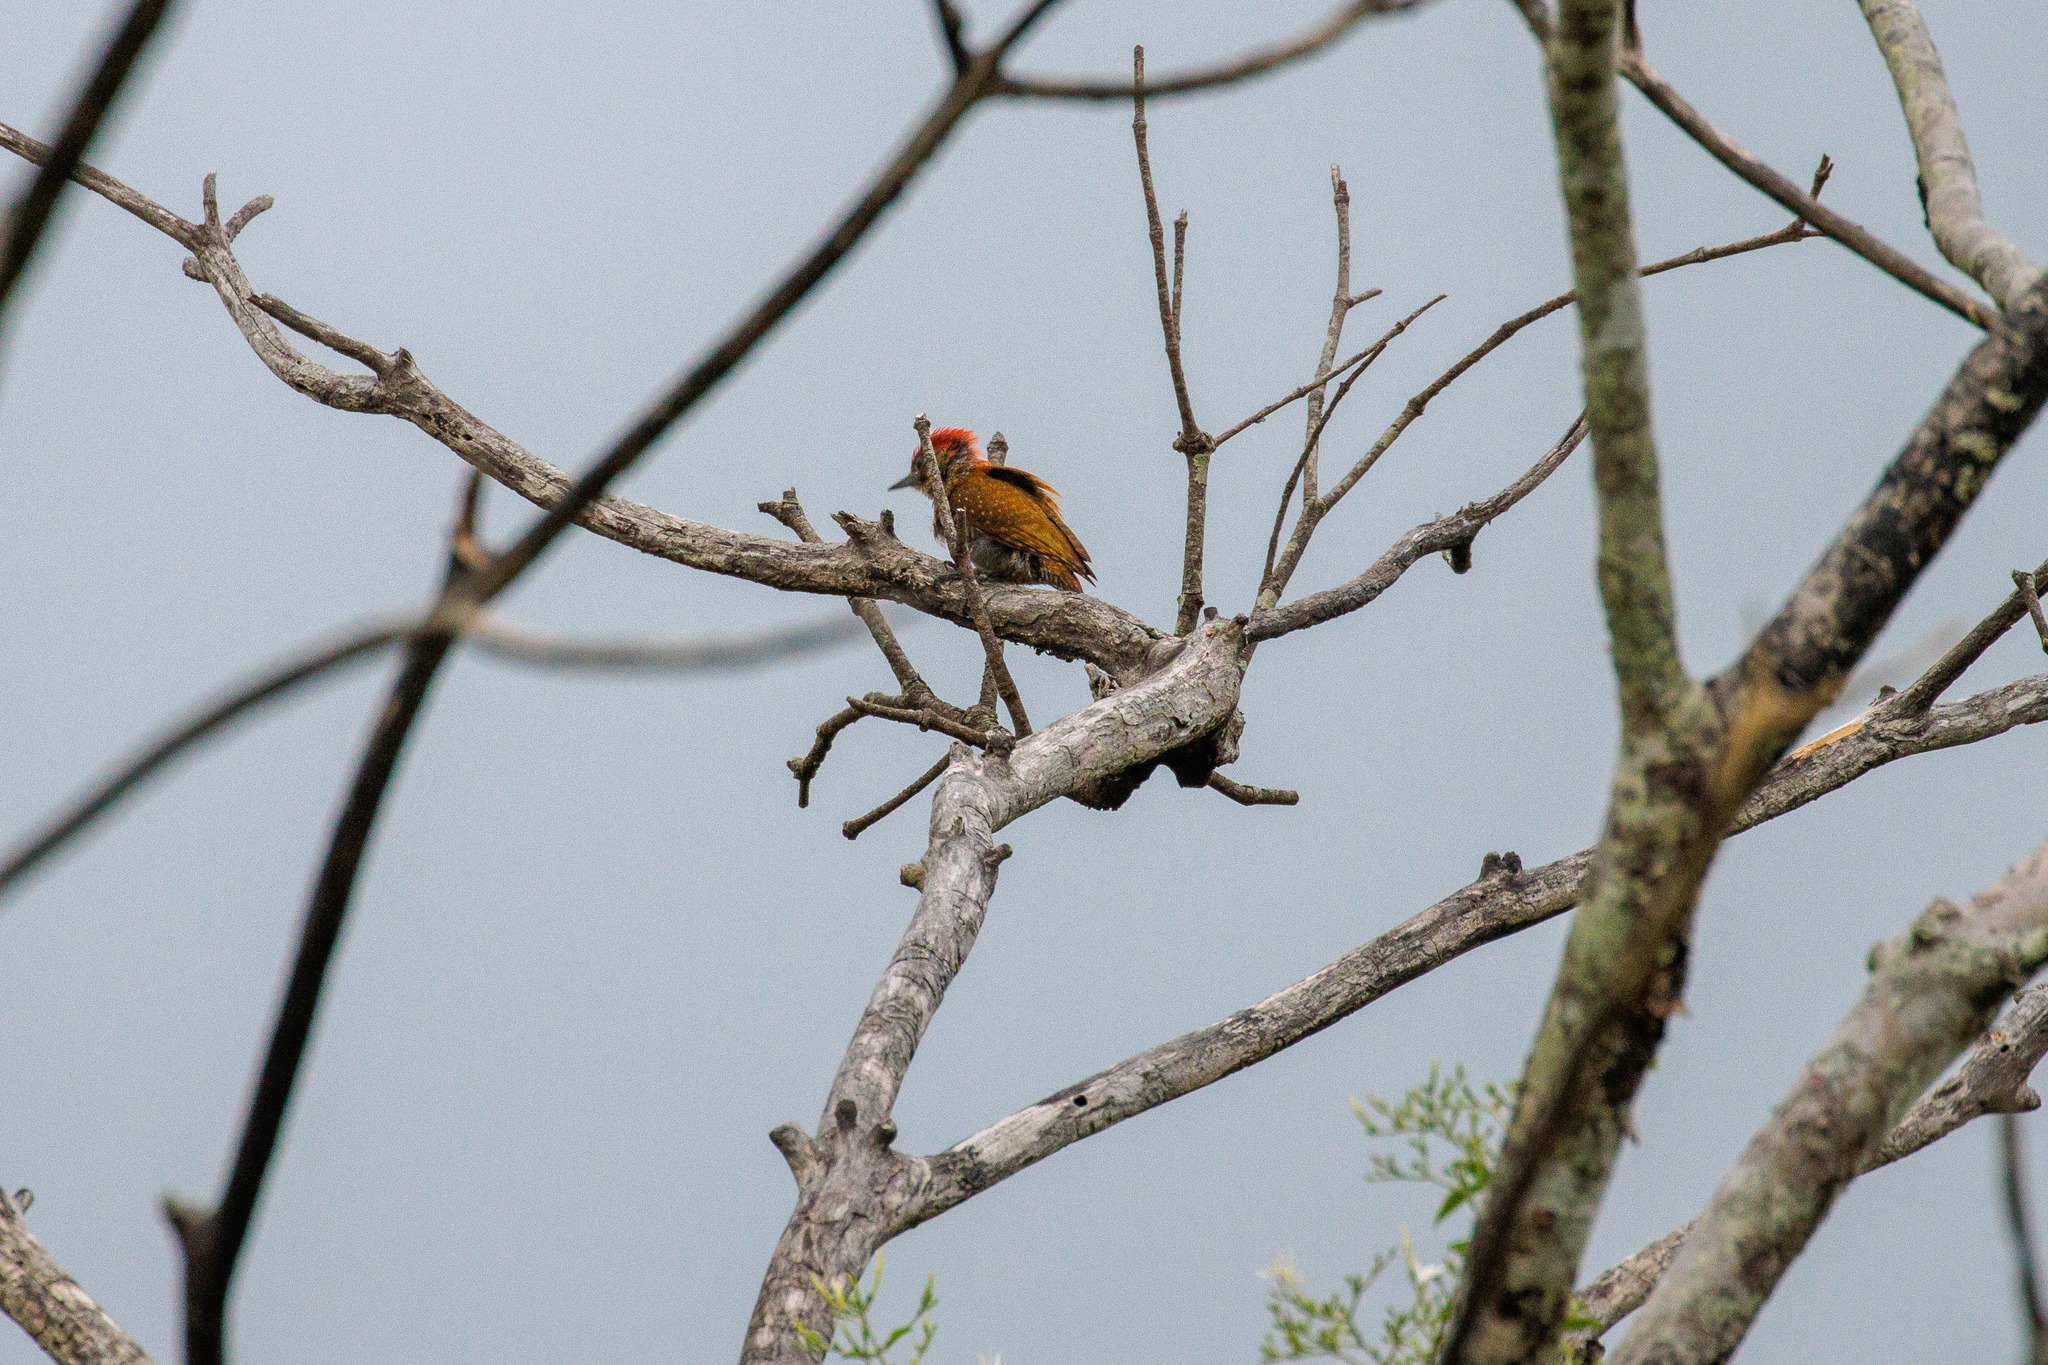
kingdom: Animalia
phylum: Chordata
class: Aves
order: Piciformes
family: Picidae
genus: Veniliornis
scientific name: Veniliornis passerinus
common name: Little woodpecker
